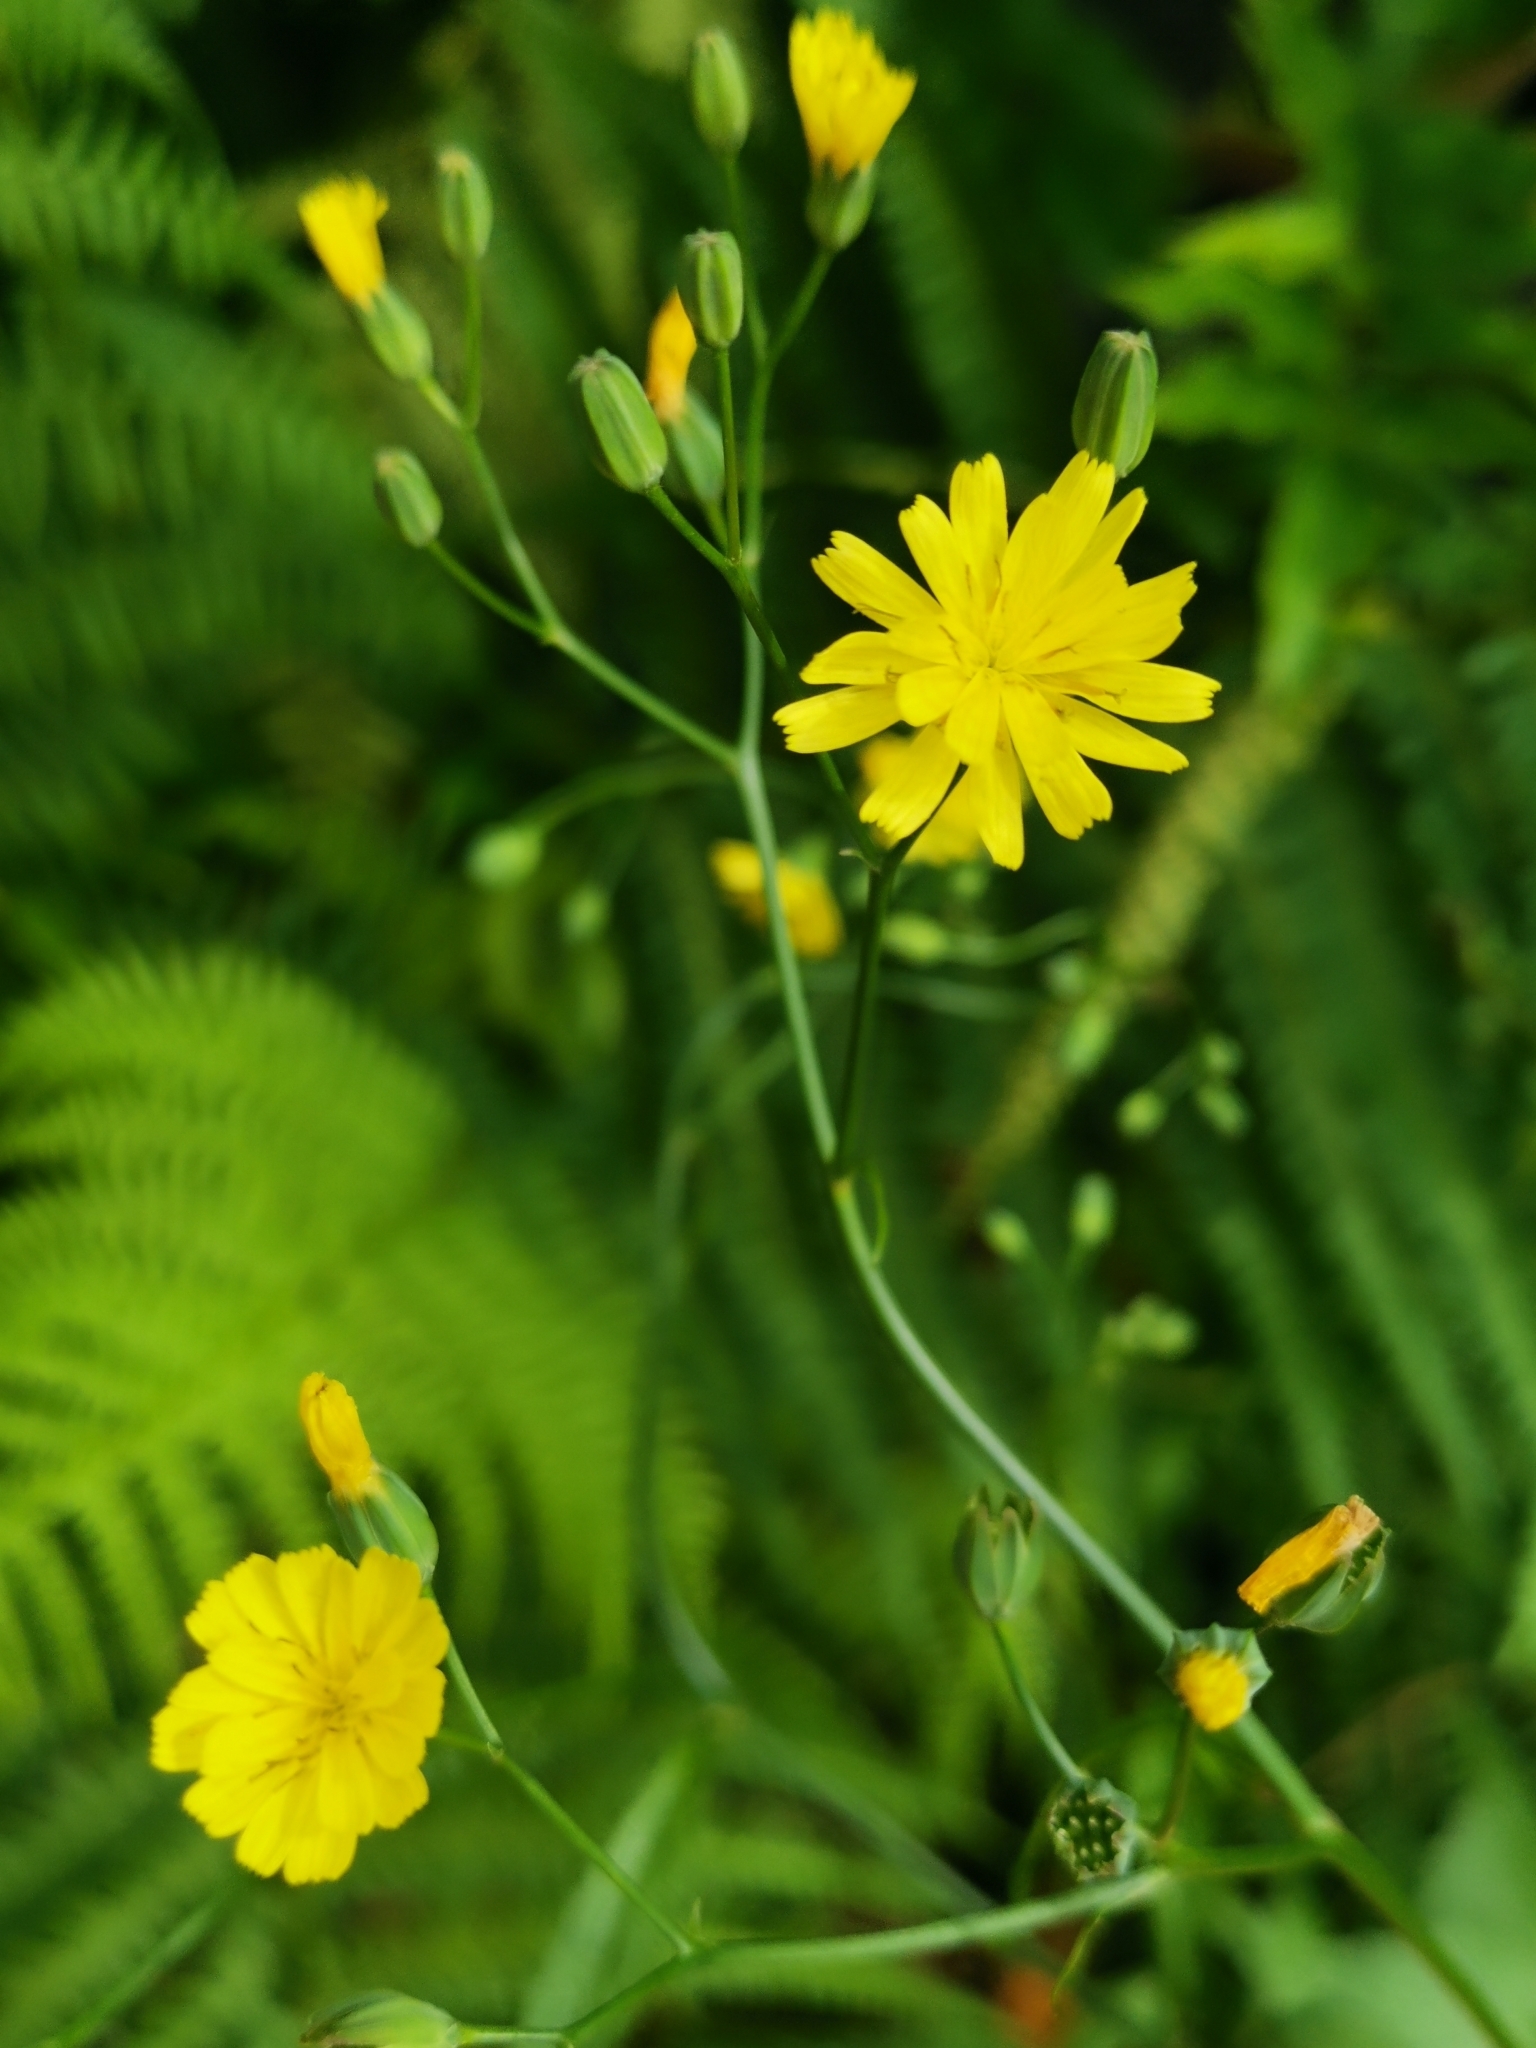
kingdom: Plantae
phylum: Tracheophyta
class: Magnoliopsida
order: Asterales
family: Asteraceae
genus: Lapsana
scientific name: Lapsana communis
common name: Nipplewort
